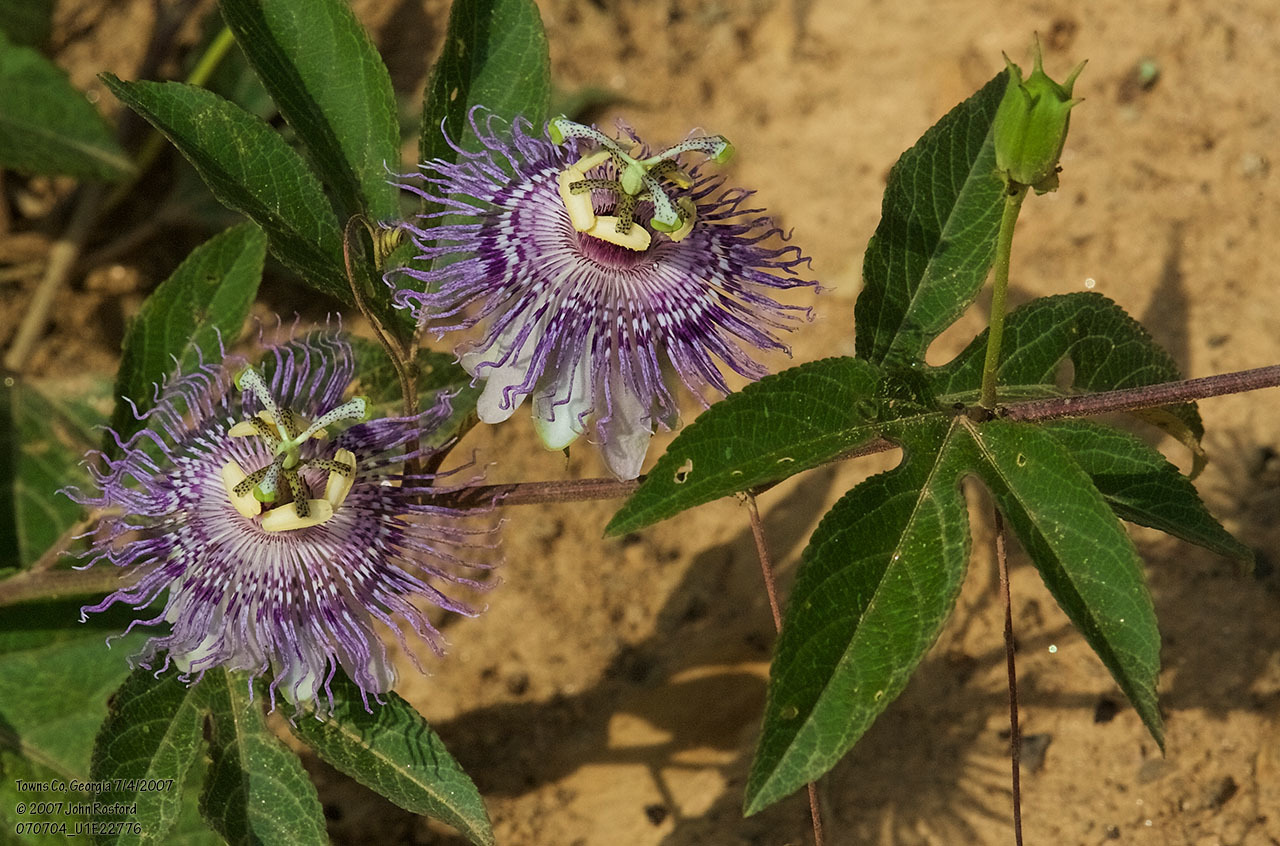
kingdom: Plantae
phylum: Tracheophyta
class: Magnoliopsida
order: Malpighiales
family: Passifloraceae
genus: Passiflora
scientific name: Passiflora incarnata
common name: Apricot-vine
